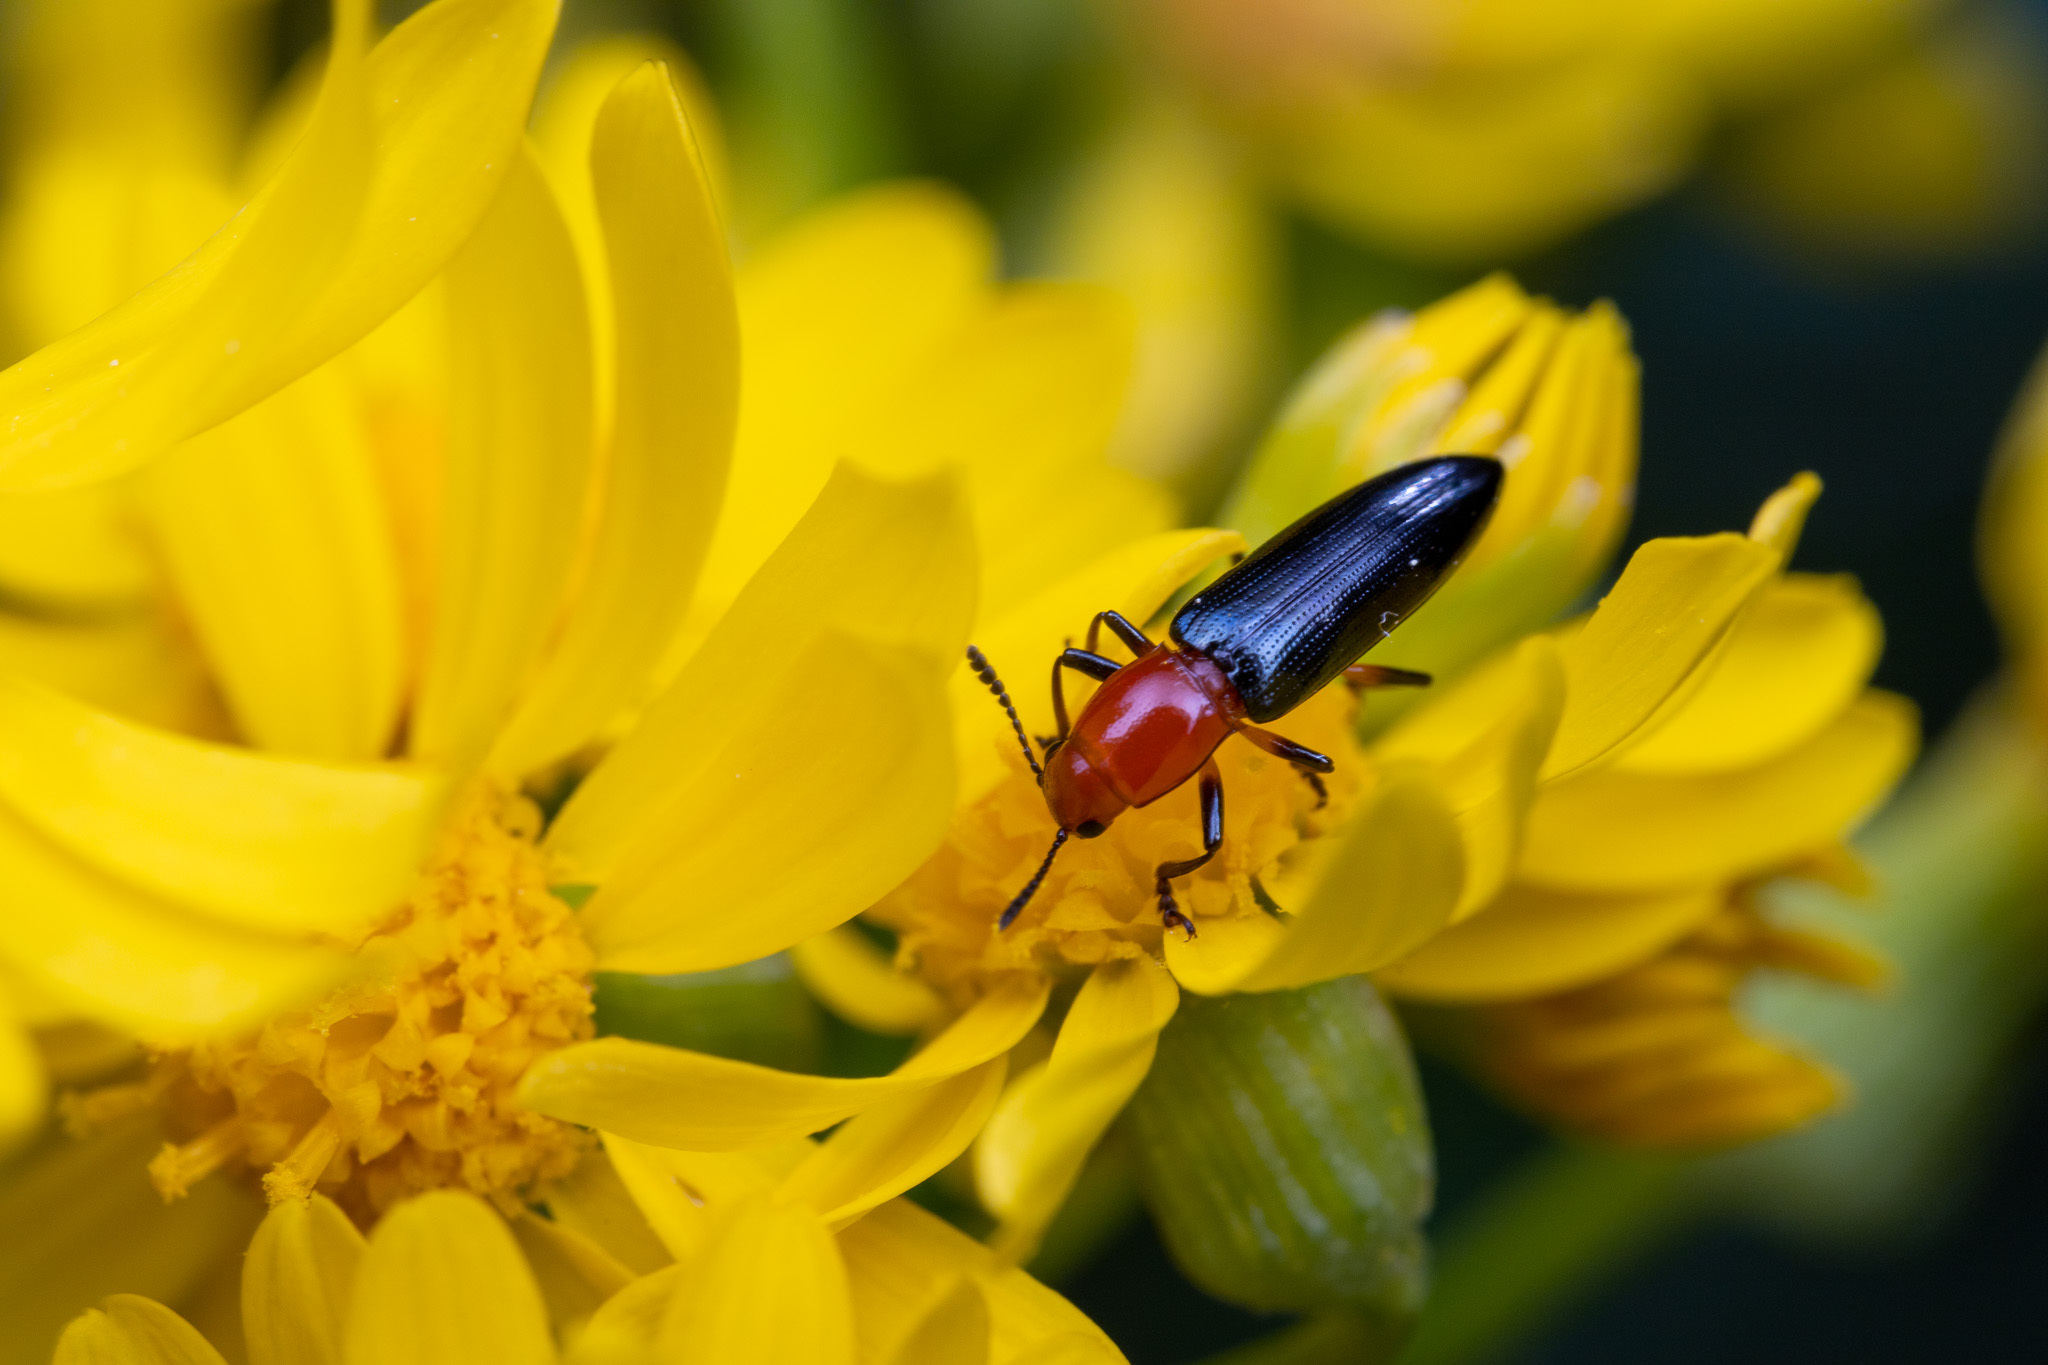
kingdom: Animalia
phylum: Arthropoda
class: Insecta
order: Coleoptera
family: Erotylidae
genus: Languria
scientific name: Languria mozardi
